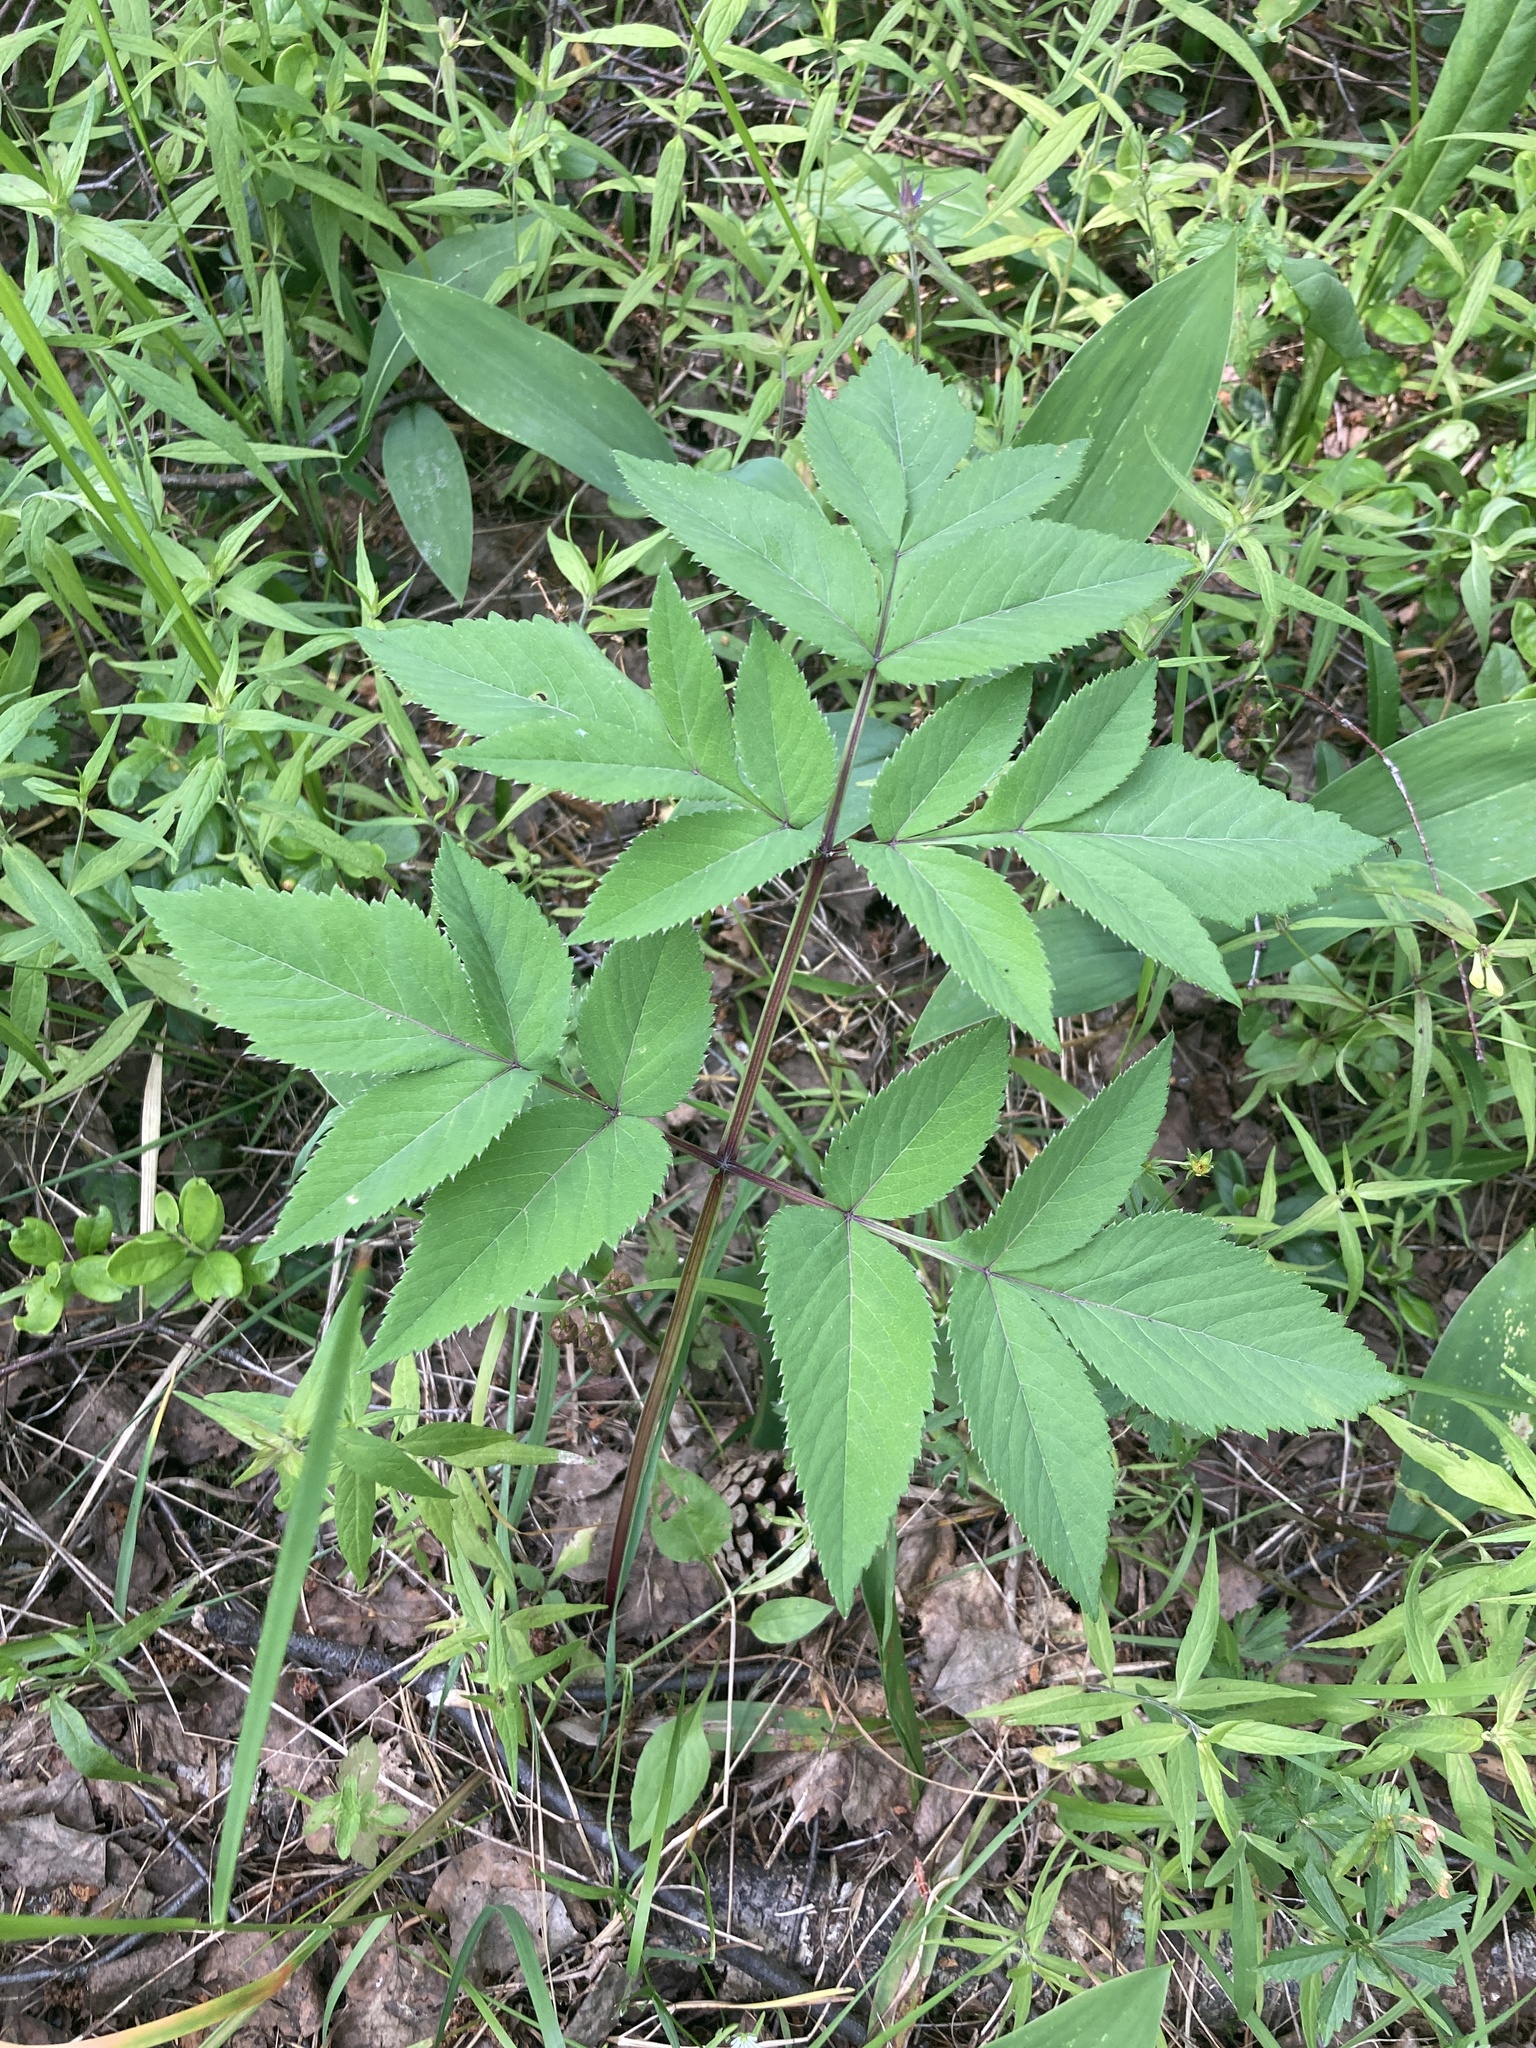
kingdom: Plantae
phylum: Tracheophyta
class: Magnoliopsida
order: Apiales
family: Apiaceae
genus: Angelica
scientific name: Angelica sylvestris
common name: Wild angelica
